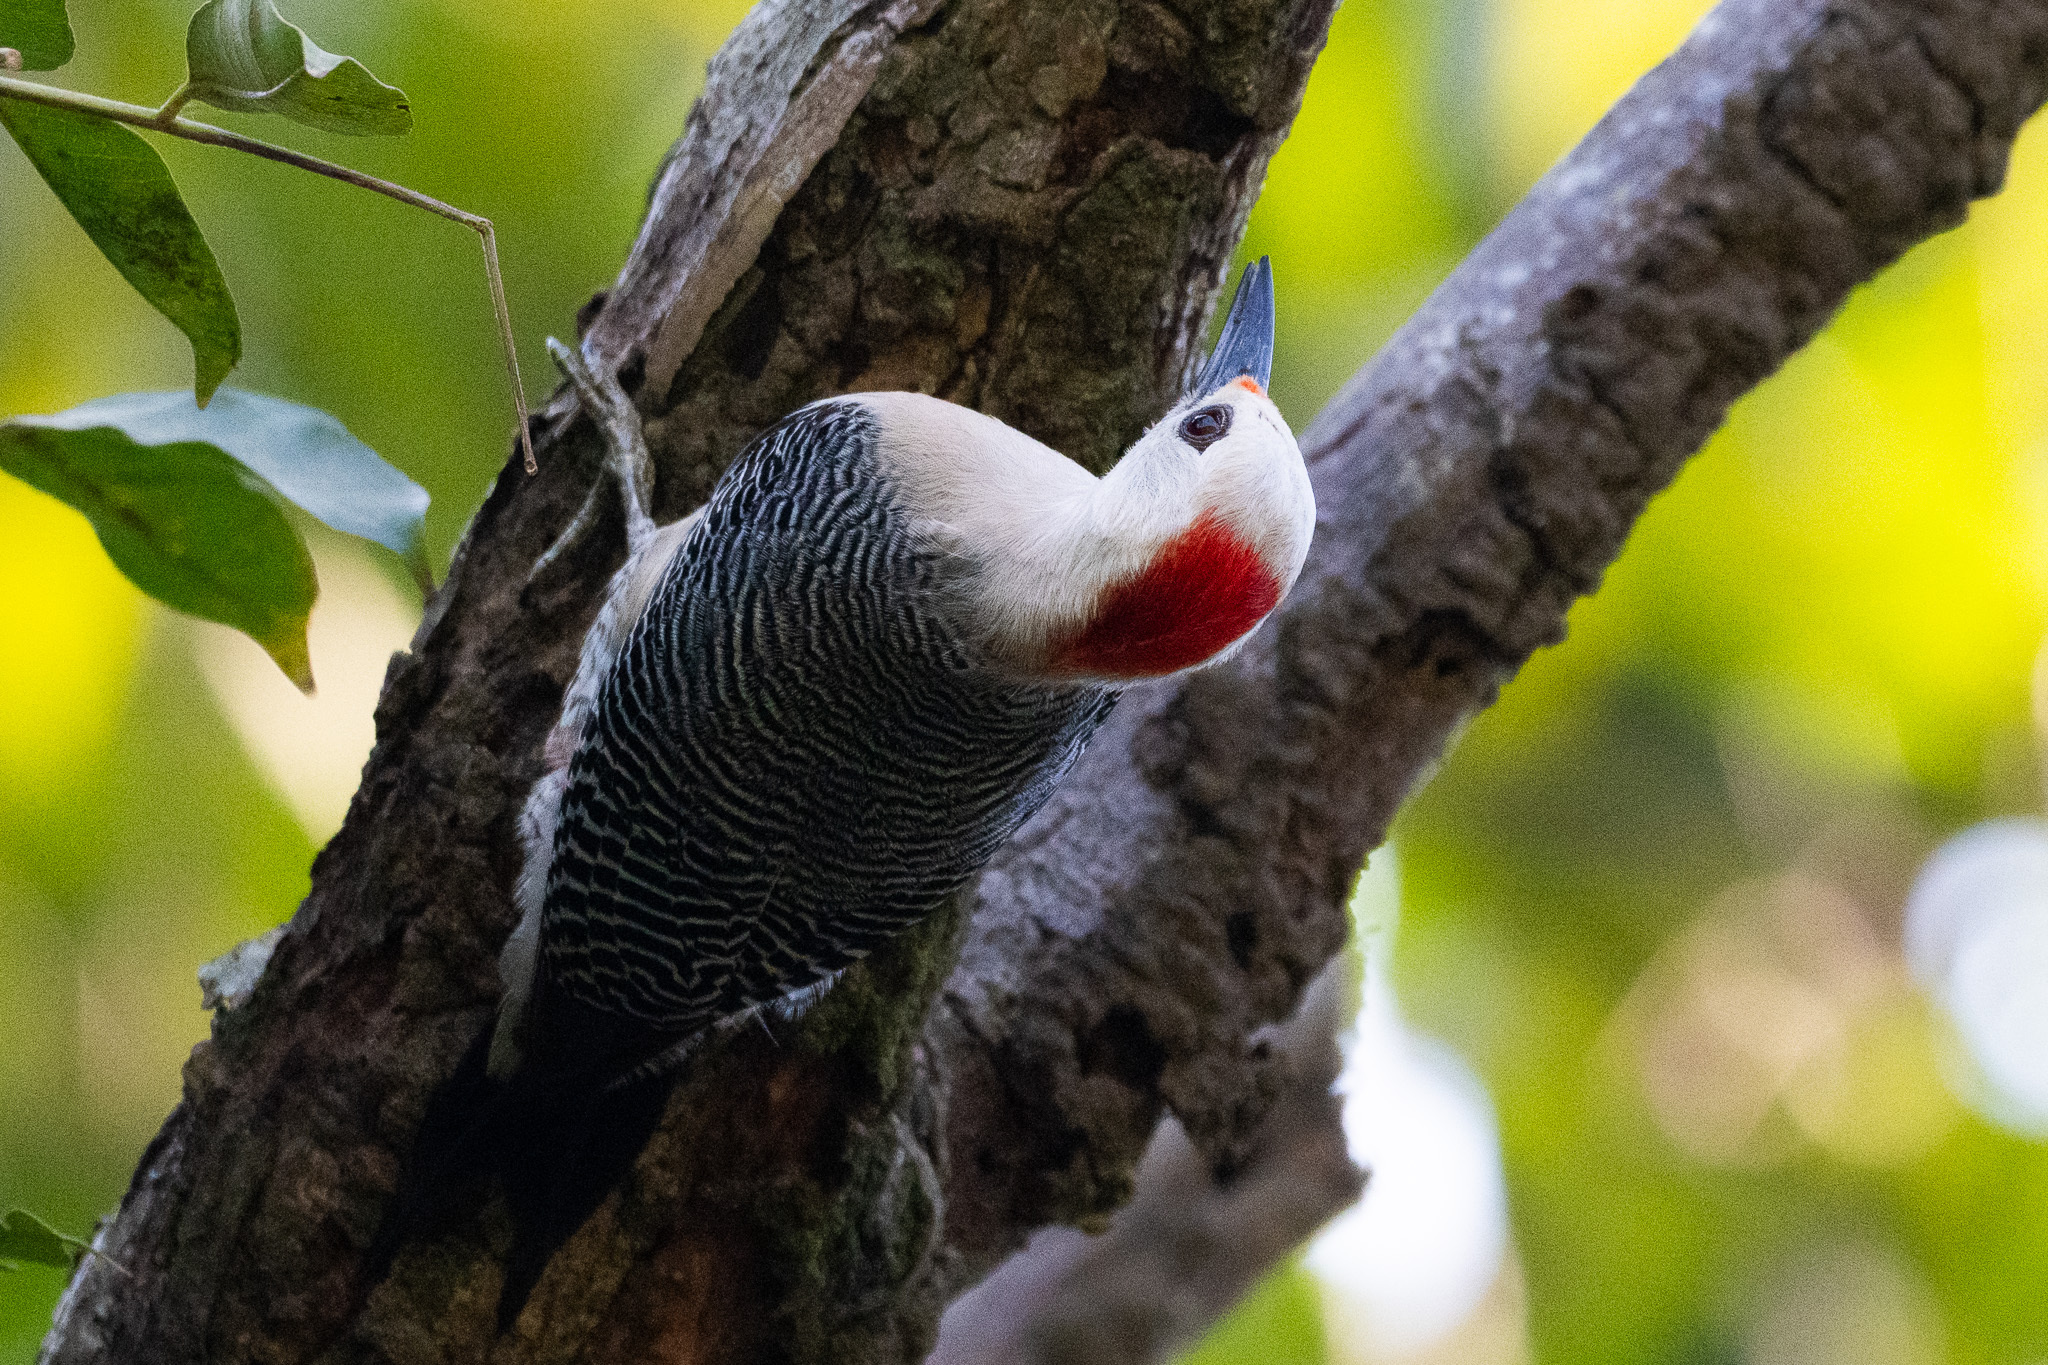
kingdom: Animalia
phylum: Chordata
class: Aves
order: Piciformes
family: Picidae
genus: Melanerpes
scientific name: Melanerpes santacruzi
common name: Velasquez's woodpecker
